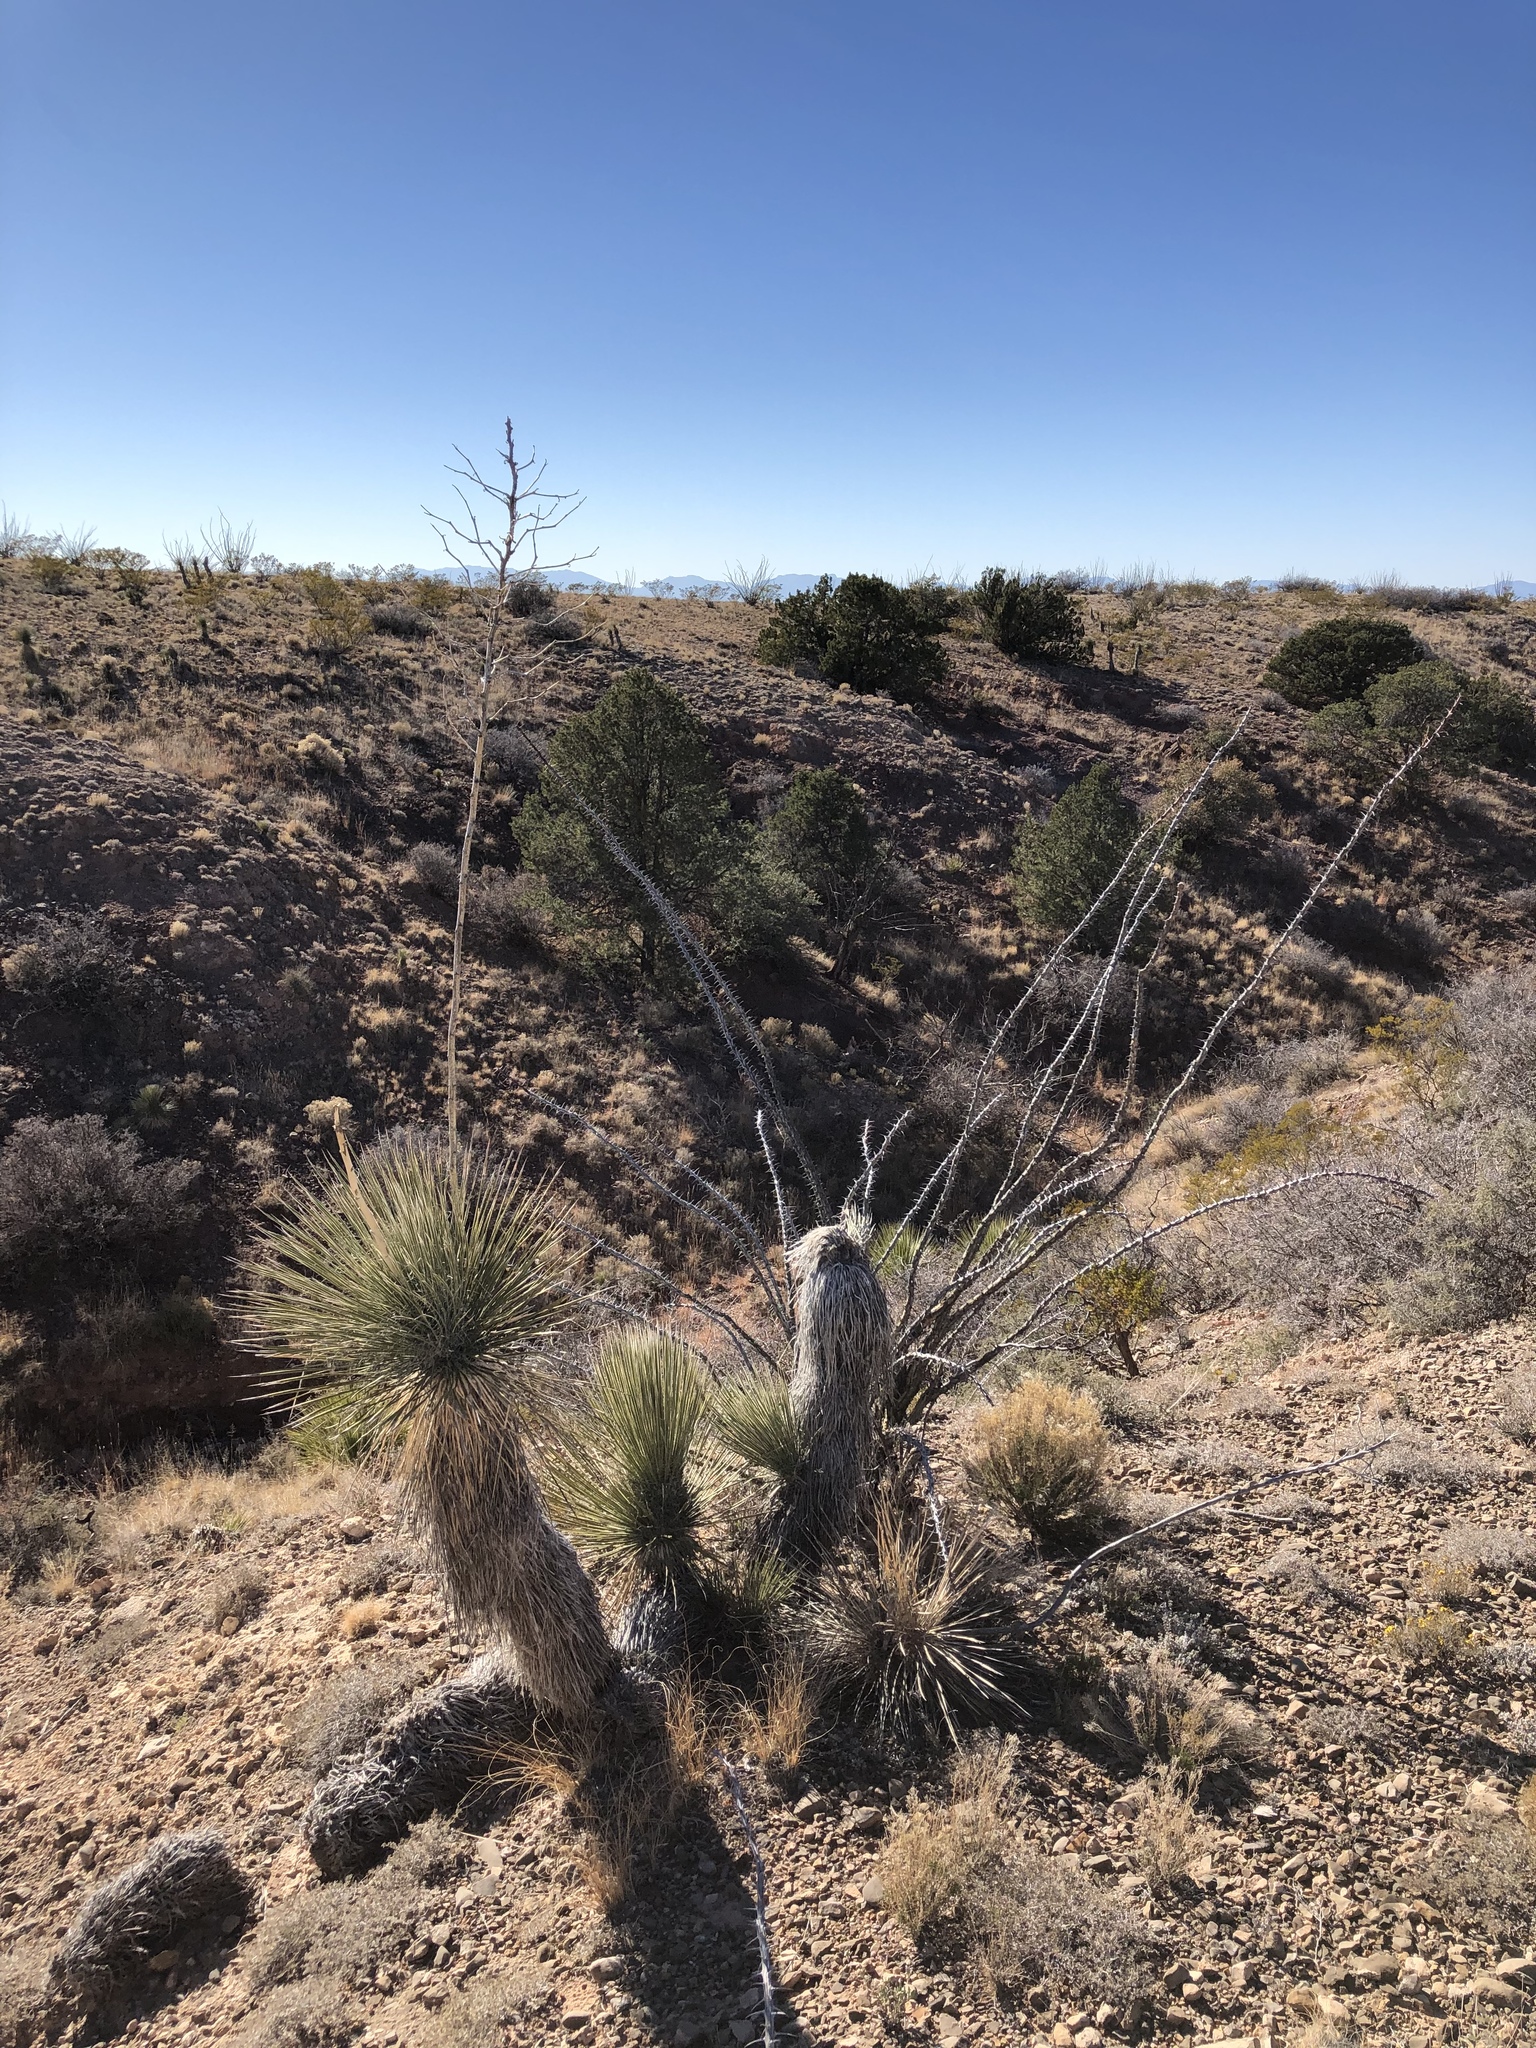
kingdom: Plantae
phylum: Tracheophyta
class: Liliopsida
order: Asparagales
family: Asparagaceae
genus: Yucca
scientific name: Yucca elata
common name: Palmella
